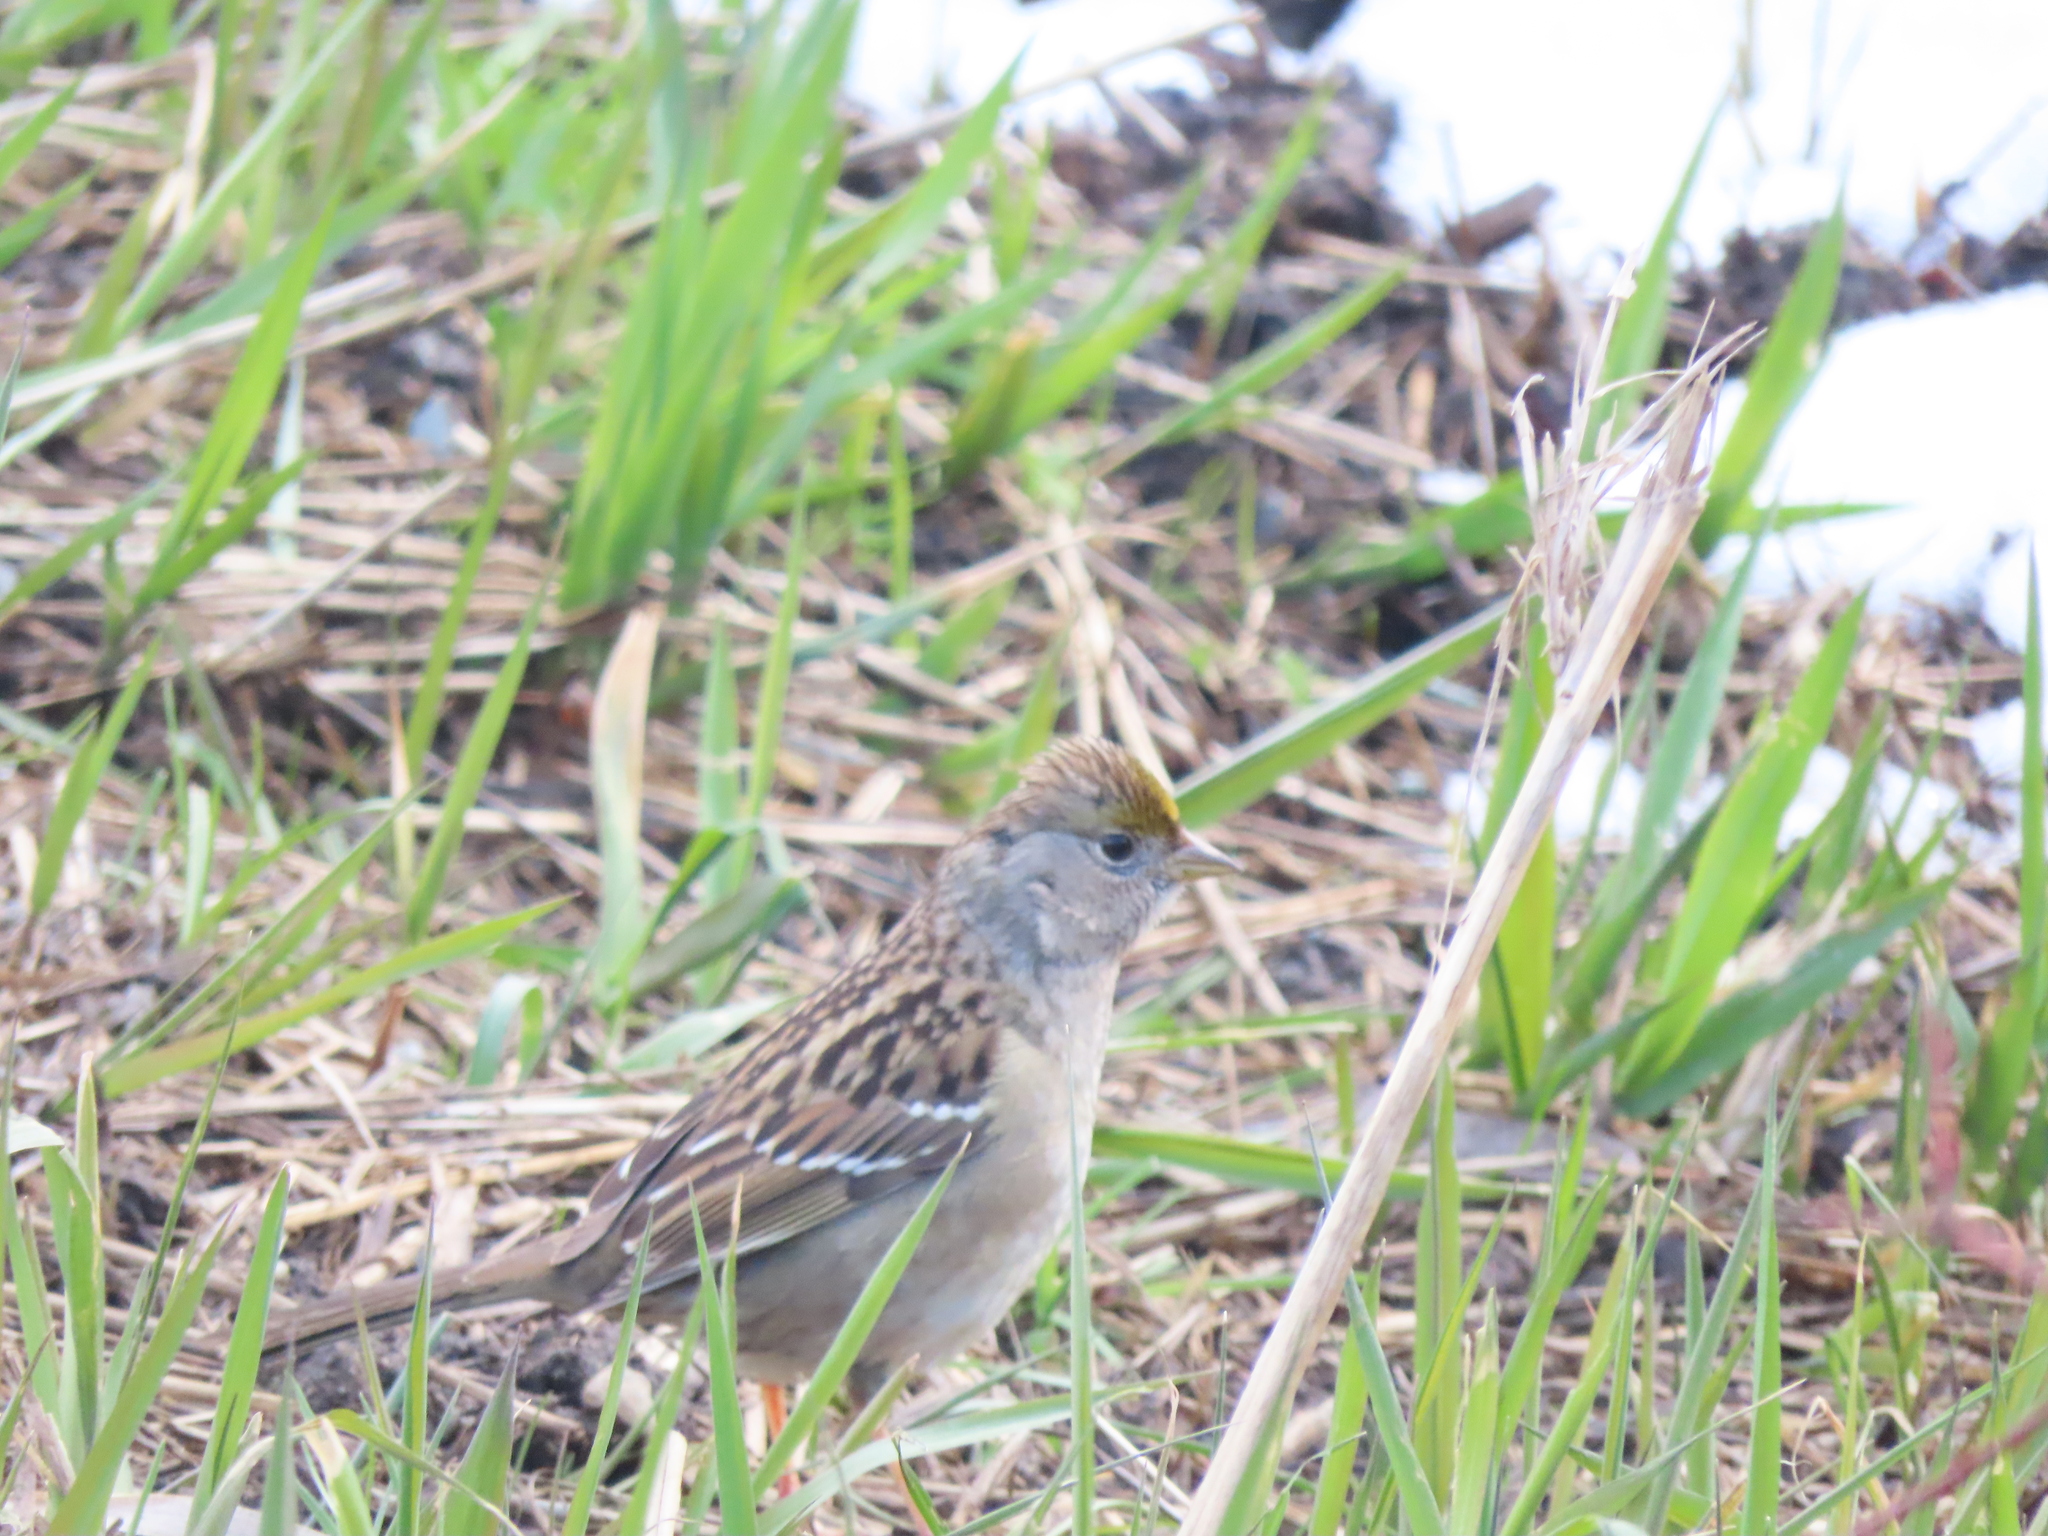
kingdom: Animalia
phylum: Chordata
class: Aves
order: Passeriformes
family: Passerellidae
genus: Zonotrichia
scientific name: Zonotrichia atricapilla
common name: Golden-crowned sparrow
